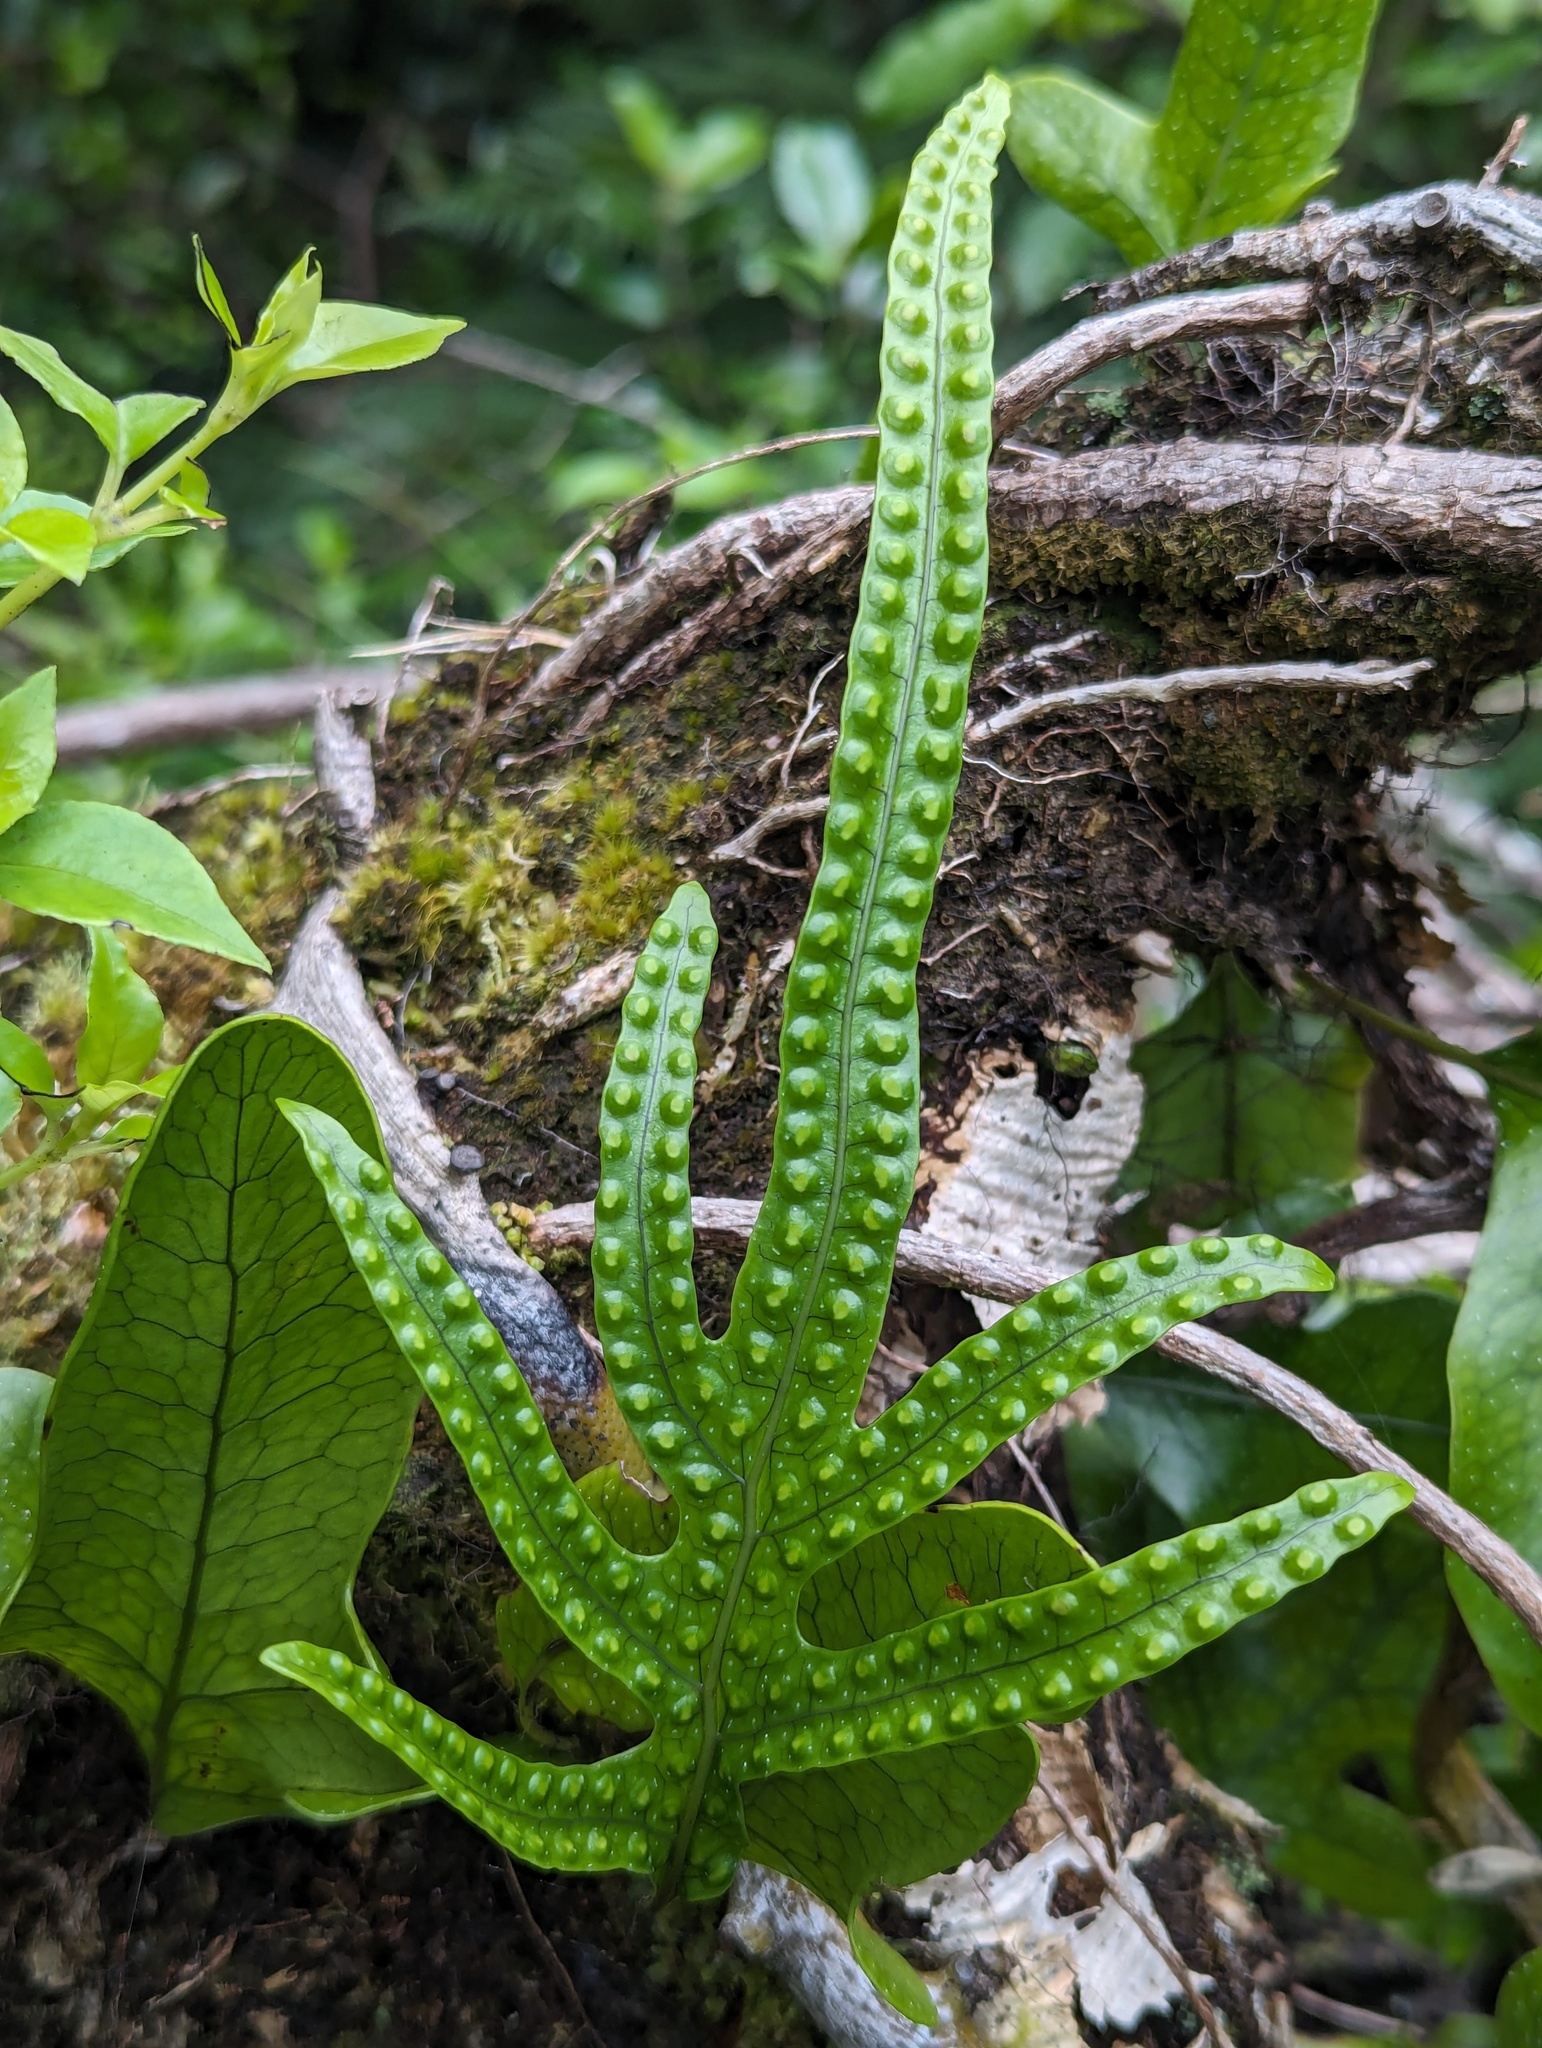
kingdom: Plantae
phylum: Tracheophyta
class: Polypodiopsida
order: Polypodiales
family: Polypodiaceae
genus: Lecanopteris
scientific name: Lecanopteris pustulata
